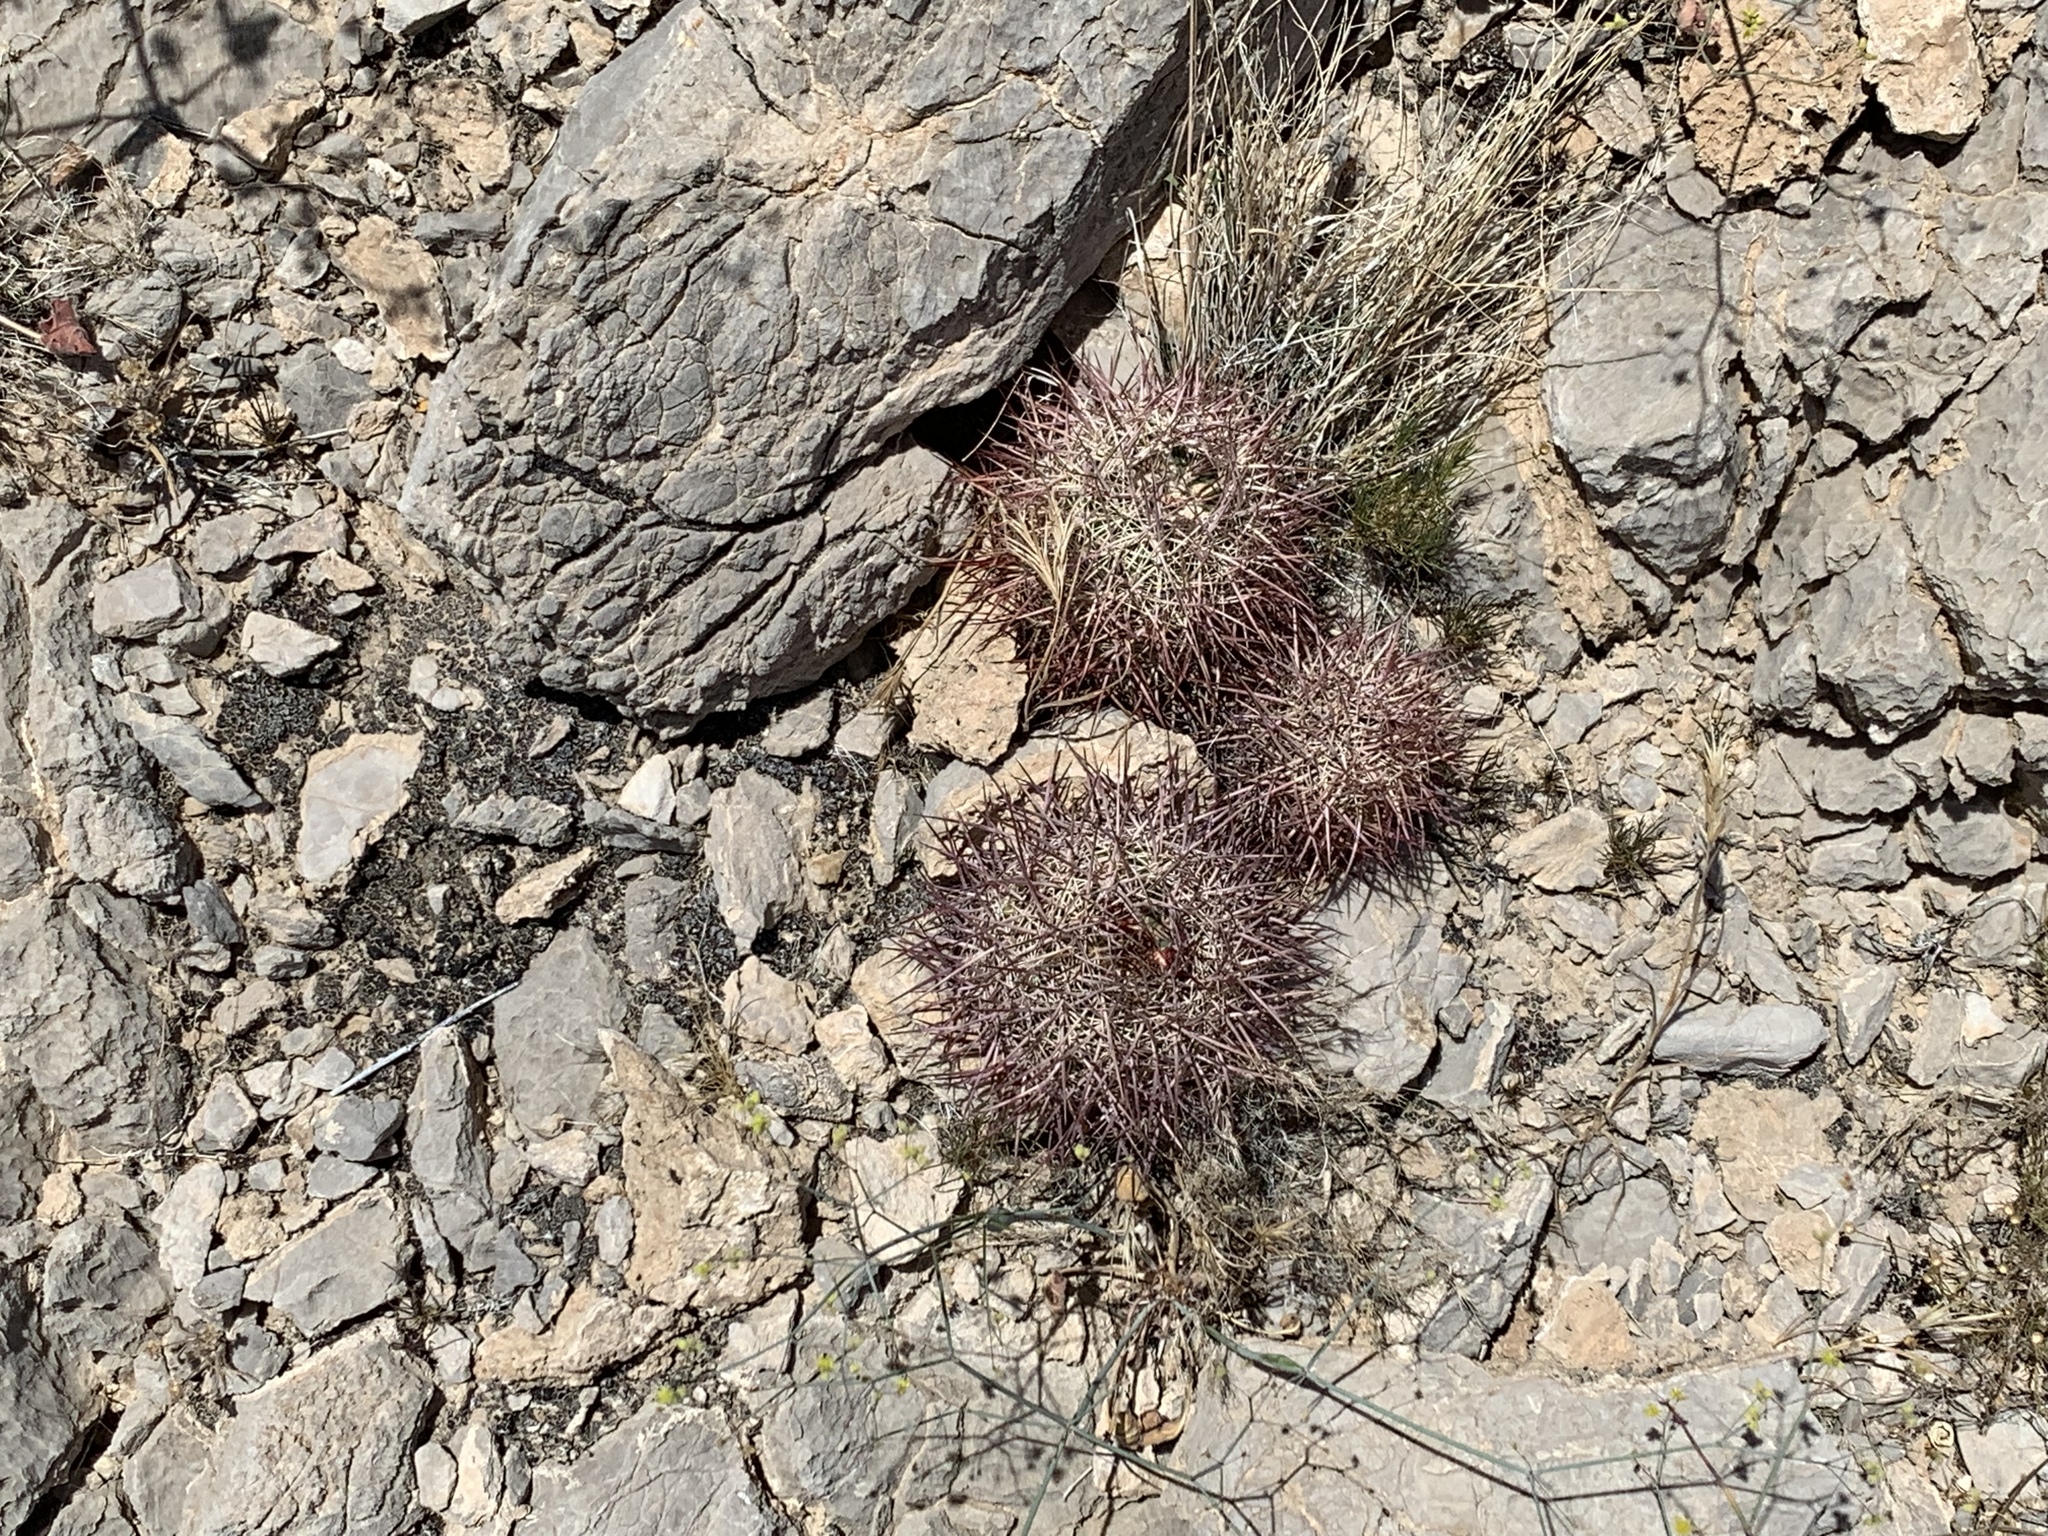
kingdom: Plantae
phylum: Tracheophyta
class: Magnoliopsida
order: Caryophyllales
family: Cactaceae
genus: Sclerocactus
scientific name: Sclerocactus johnsonii
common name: Eight-spine fishhook cactus
